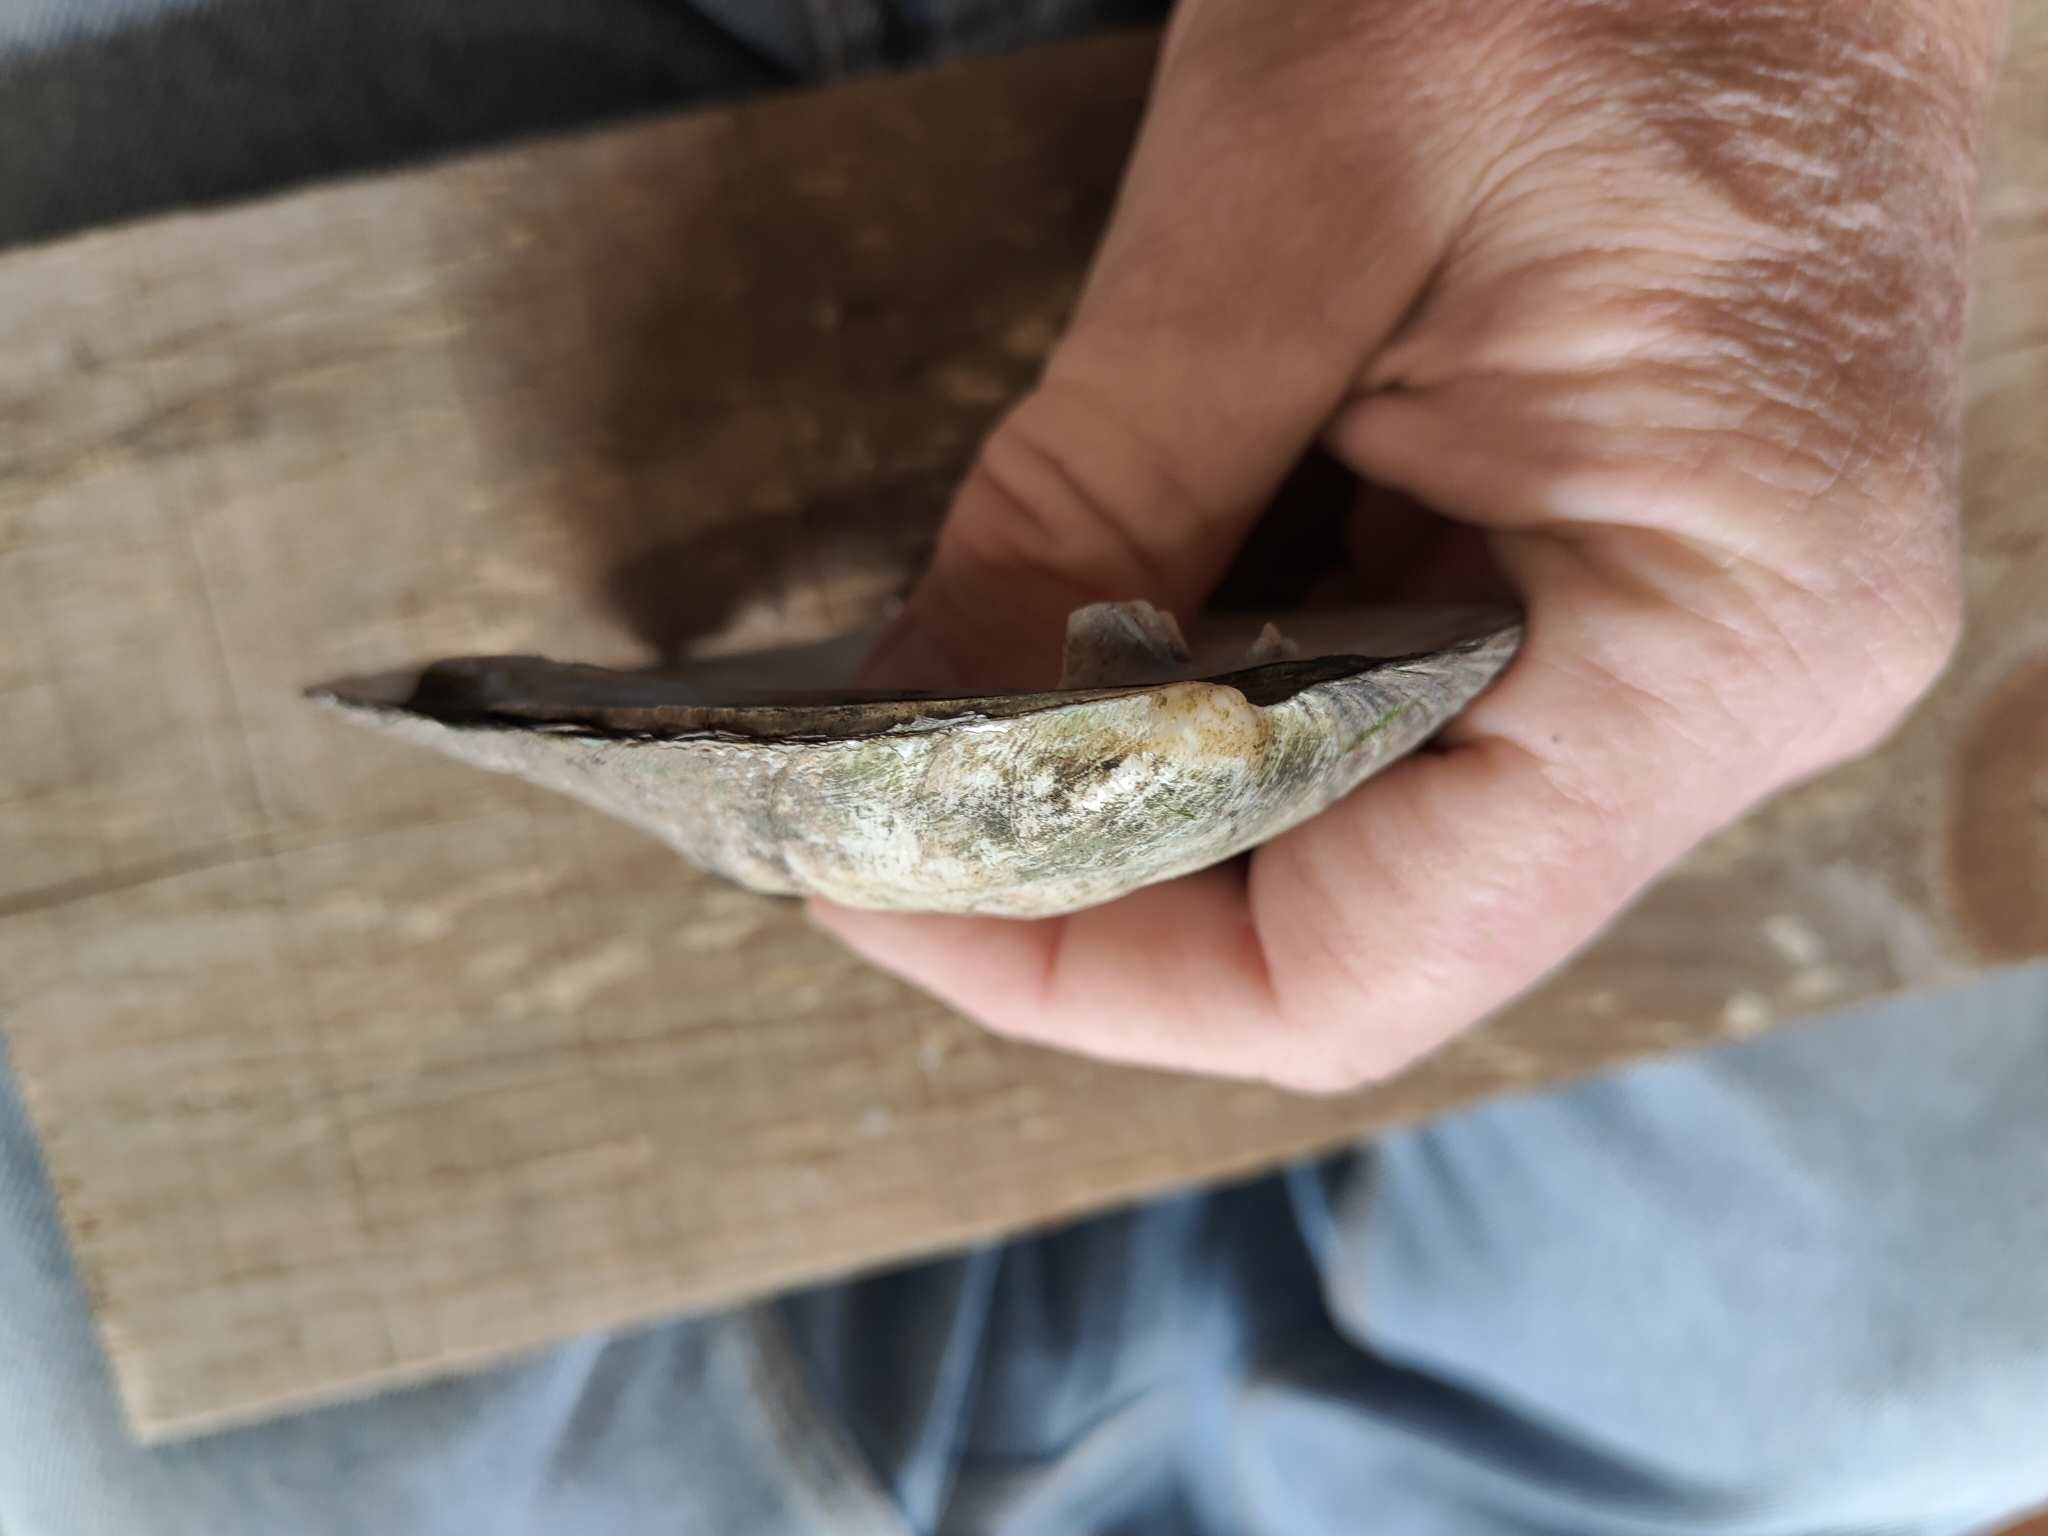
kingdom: Animalia
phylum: Mollusca
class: Bivalvia
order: Unionida
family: Unionidae
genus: Amblema
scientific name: Amblema plicata
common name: Threeridge
